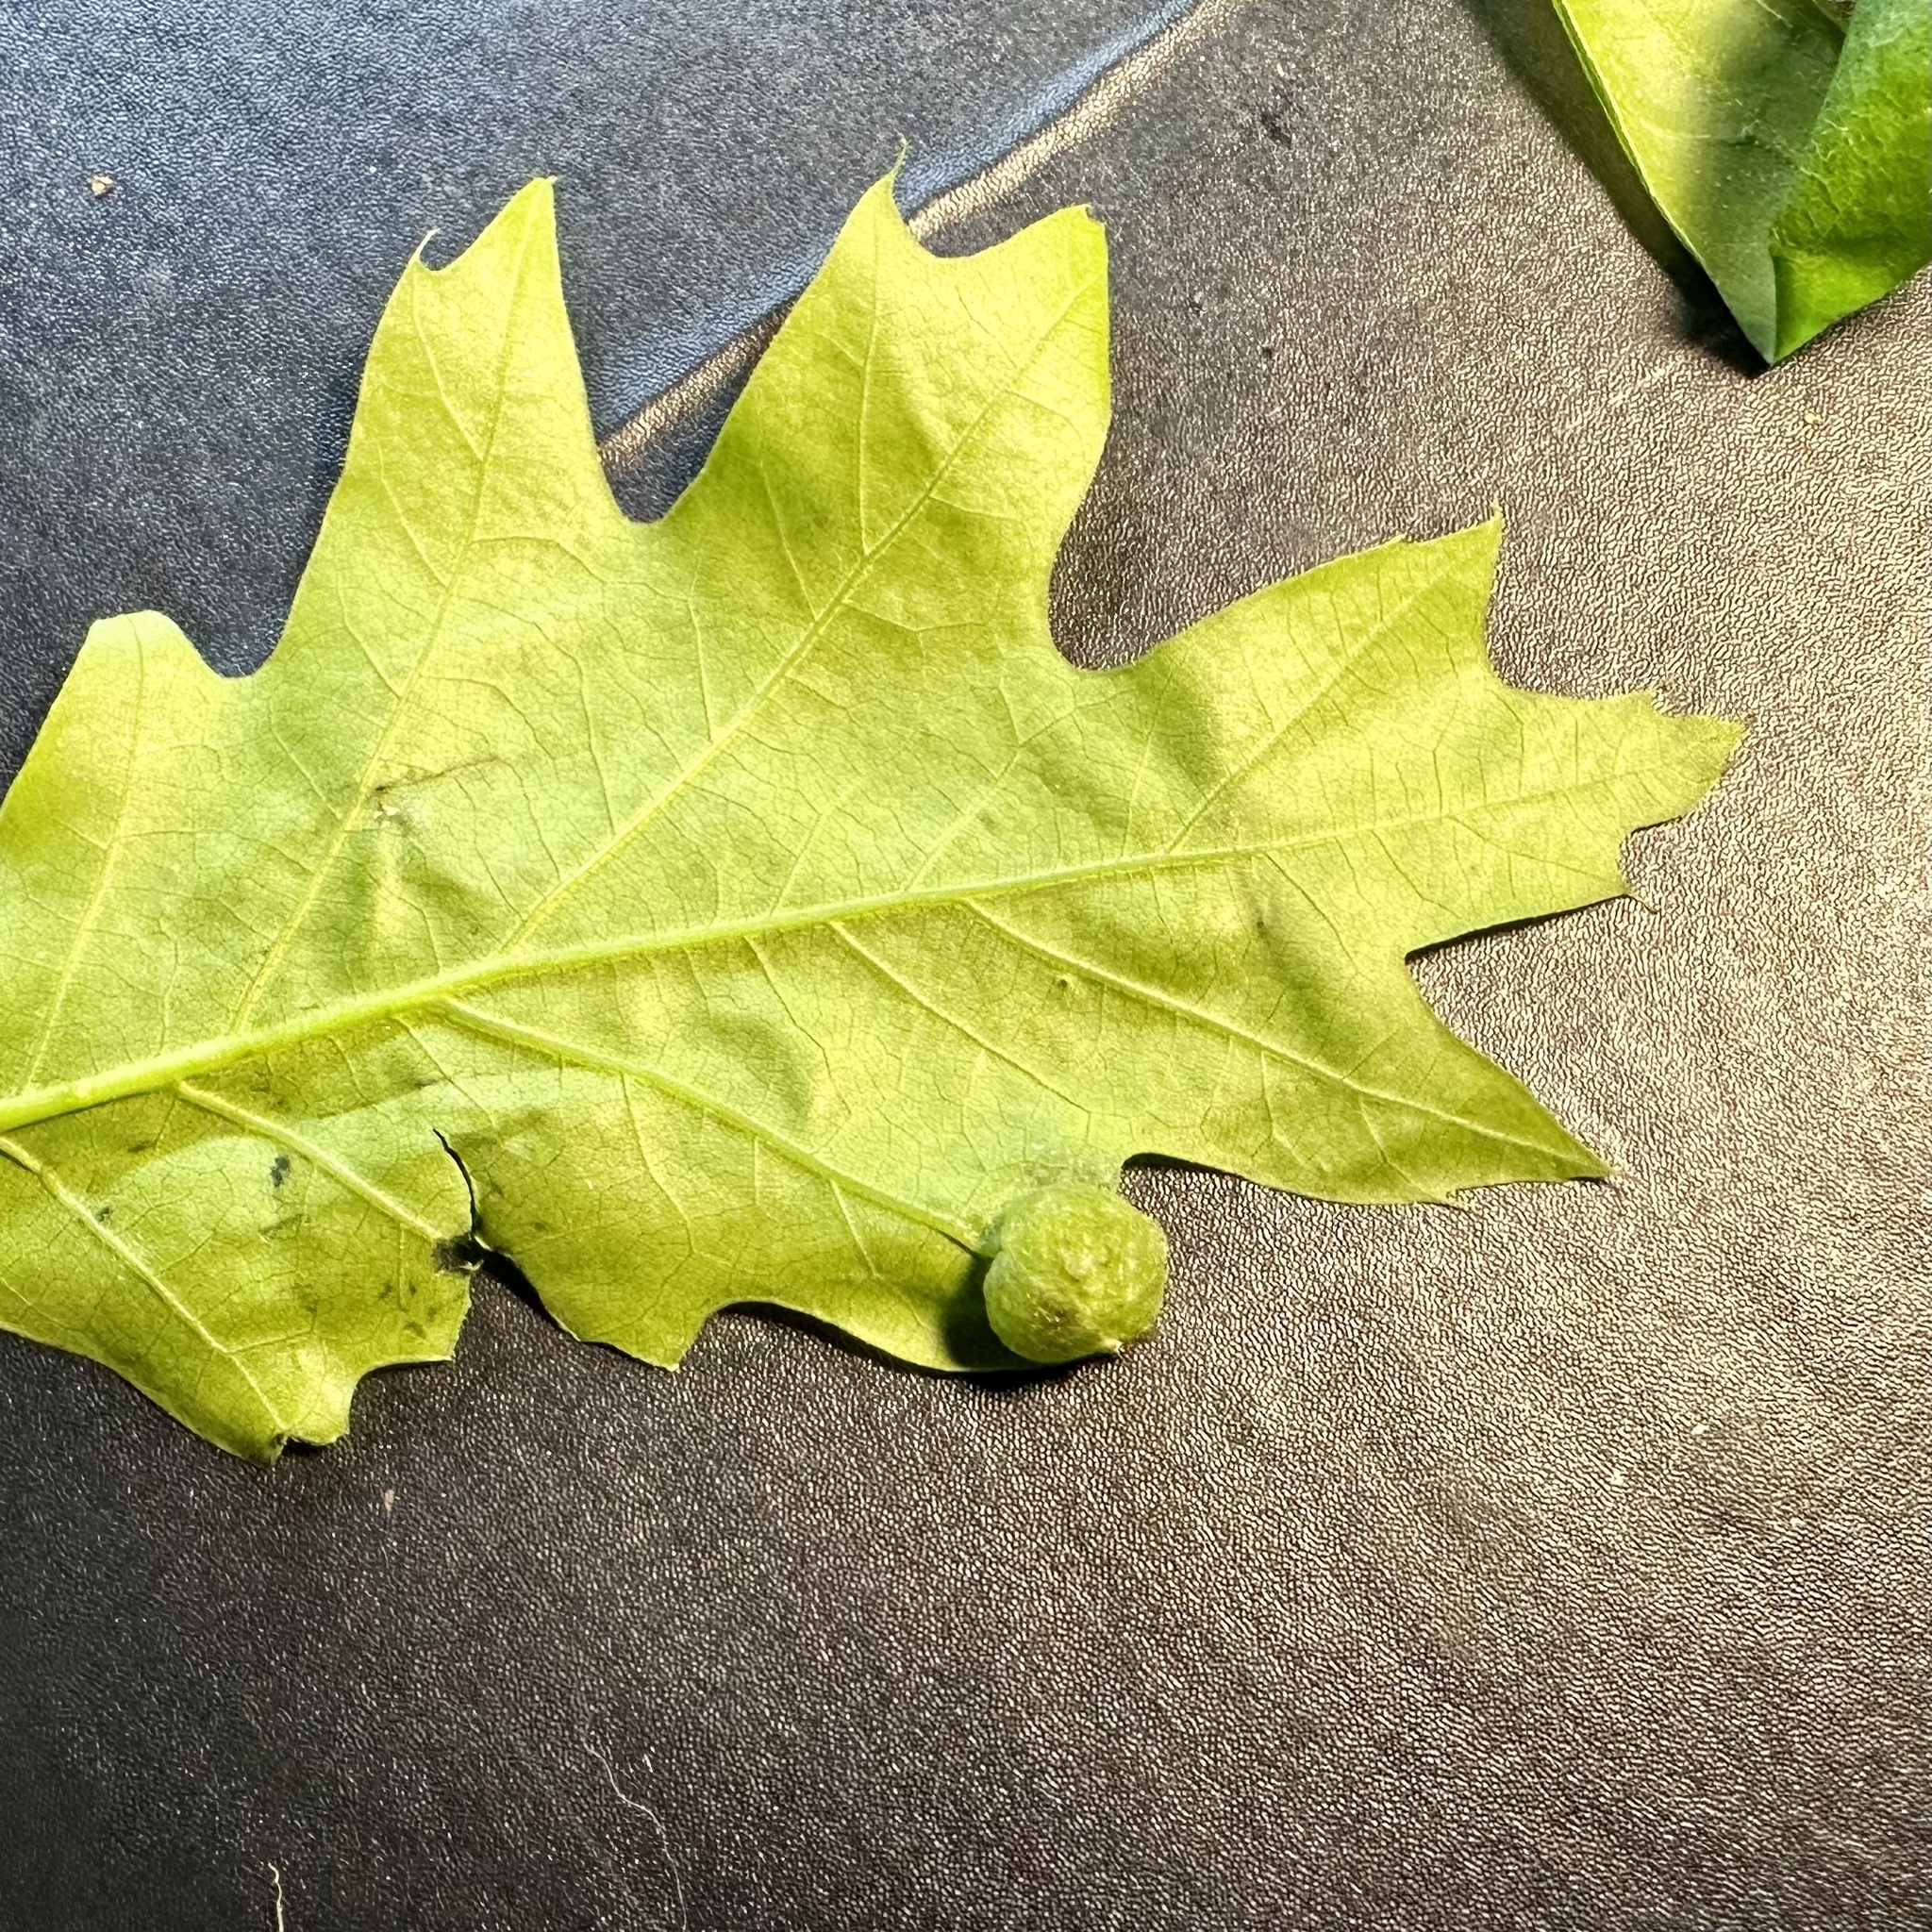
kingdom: Animalia
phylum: Arthropoda
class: Insecta
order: Hymenoptera
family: Cynipidae
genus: Dryocosmus
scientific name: Dryocosmus quercuspalustris
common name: Succulent oak gall wasp
